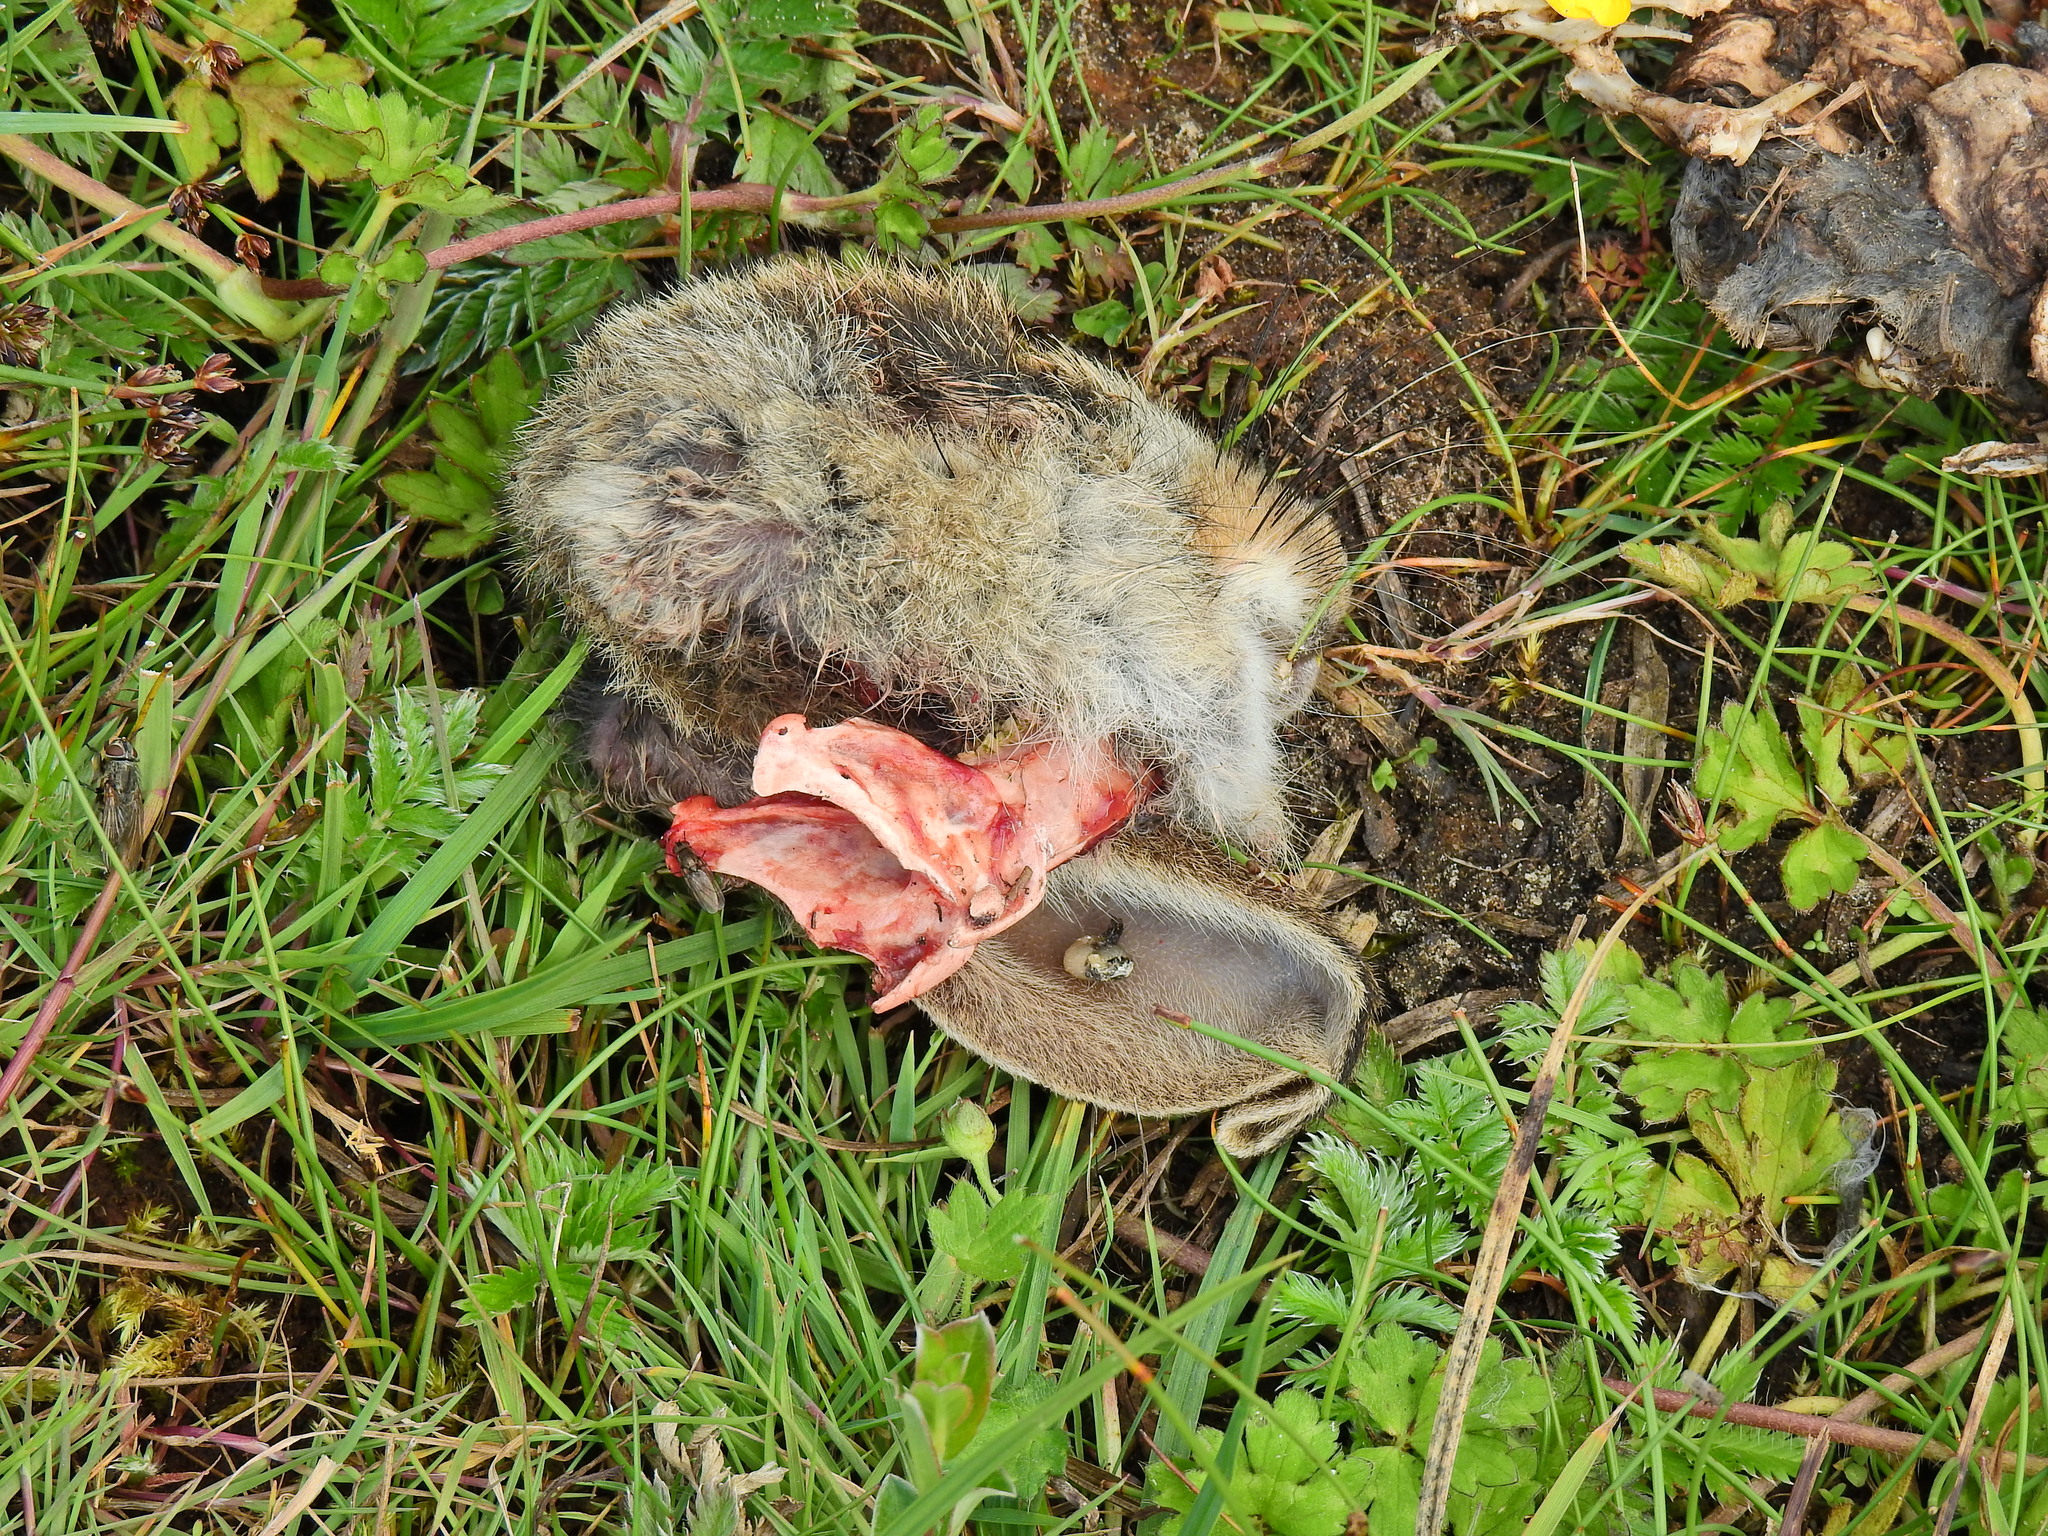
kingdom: Animalia
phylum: Chordata
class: Mammalia
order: Lagomorpha
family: Leporidae
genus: Oryctolagus
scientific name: Oryctolagus cuniculus
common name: European rabbit
